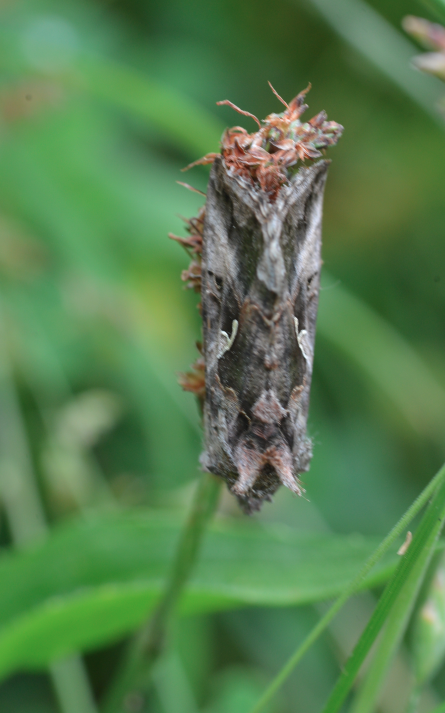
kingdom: Animalia
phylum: Arthropoda
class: Insecta
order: Lepidoptera
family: Noctuidae
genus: Autographa
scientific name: Autographa gamma
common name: Silver y
